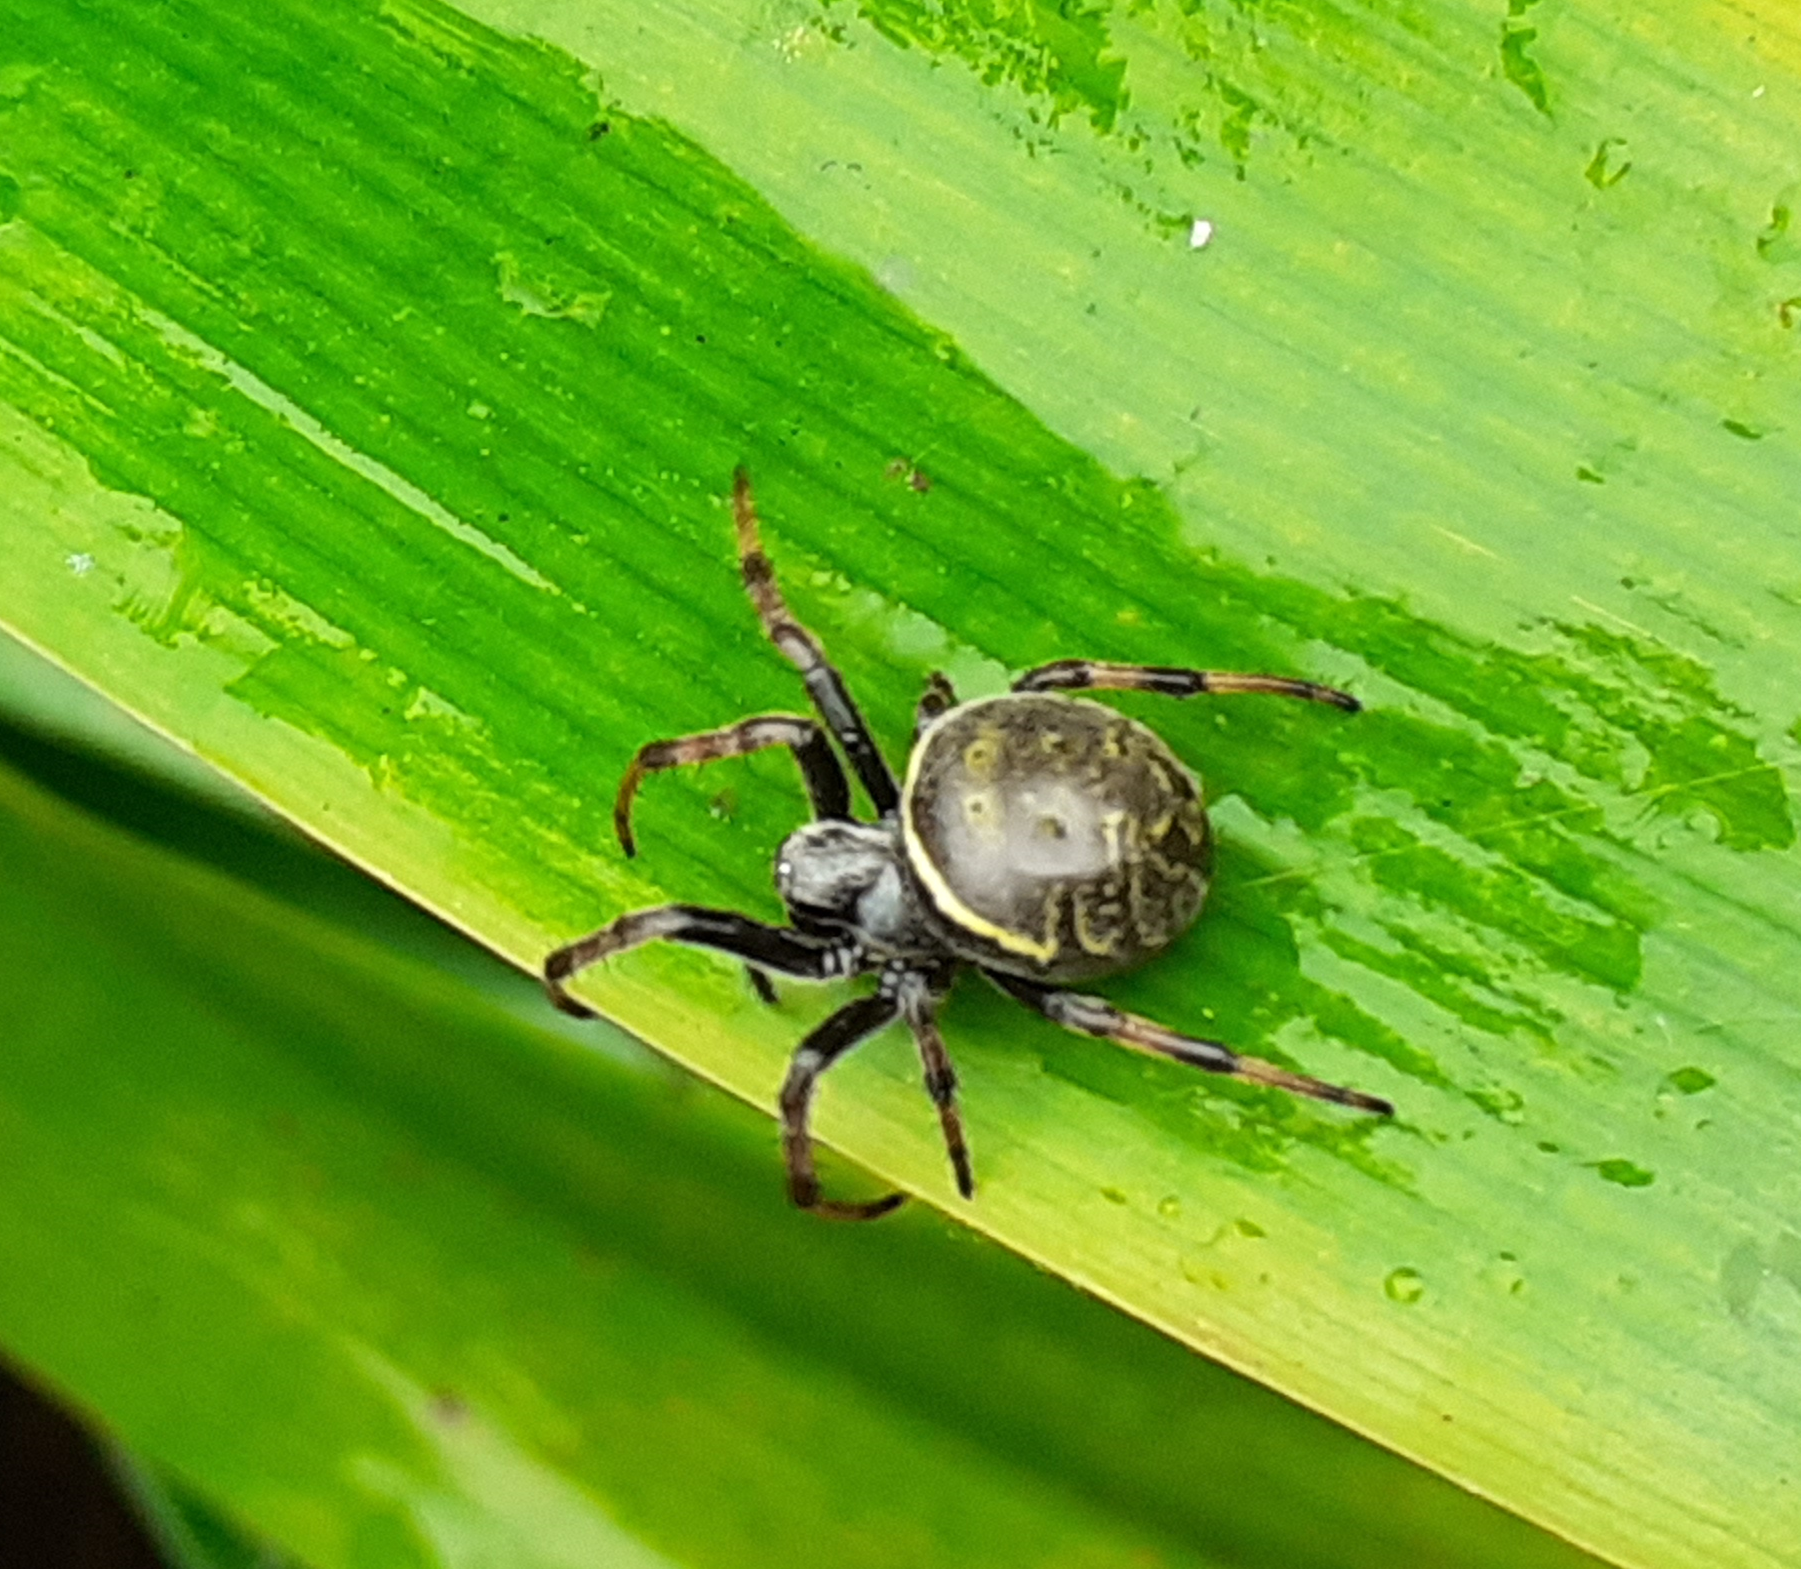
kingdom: Animalia
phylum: Arthropoda
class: Arachnida
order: Araneae
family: Araneidae
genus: Araneus
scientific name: Araneus granadensis
